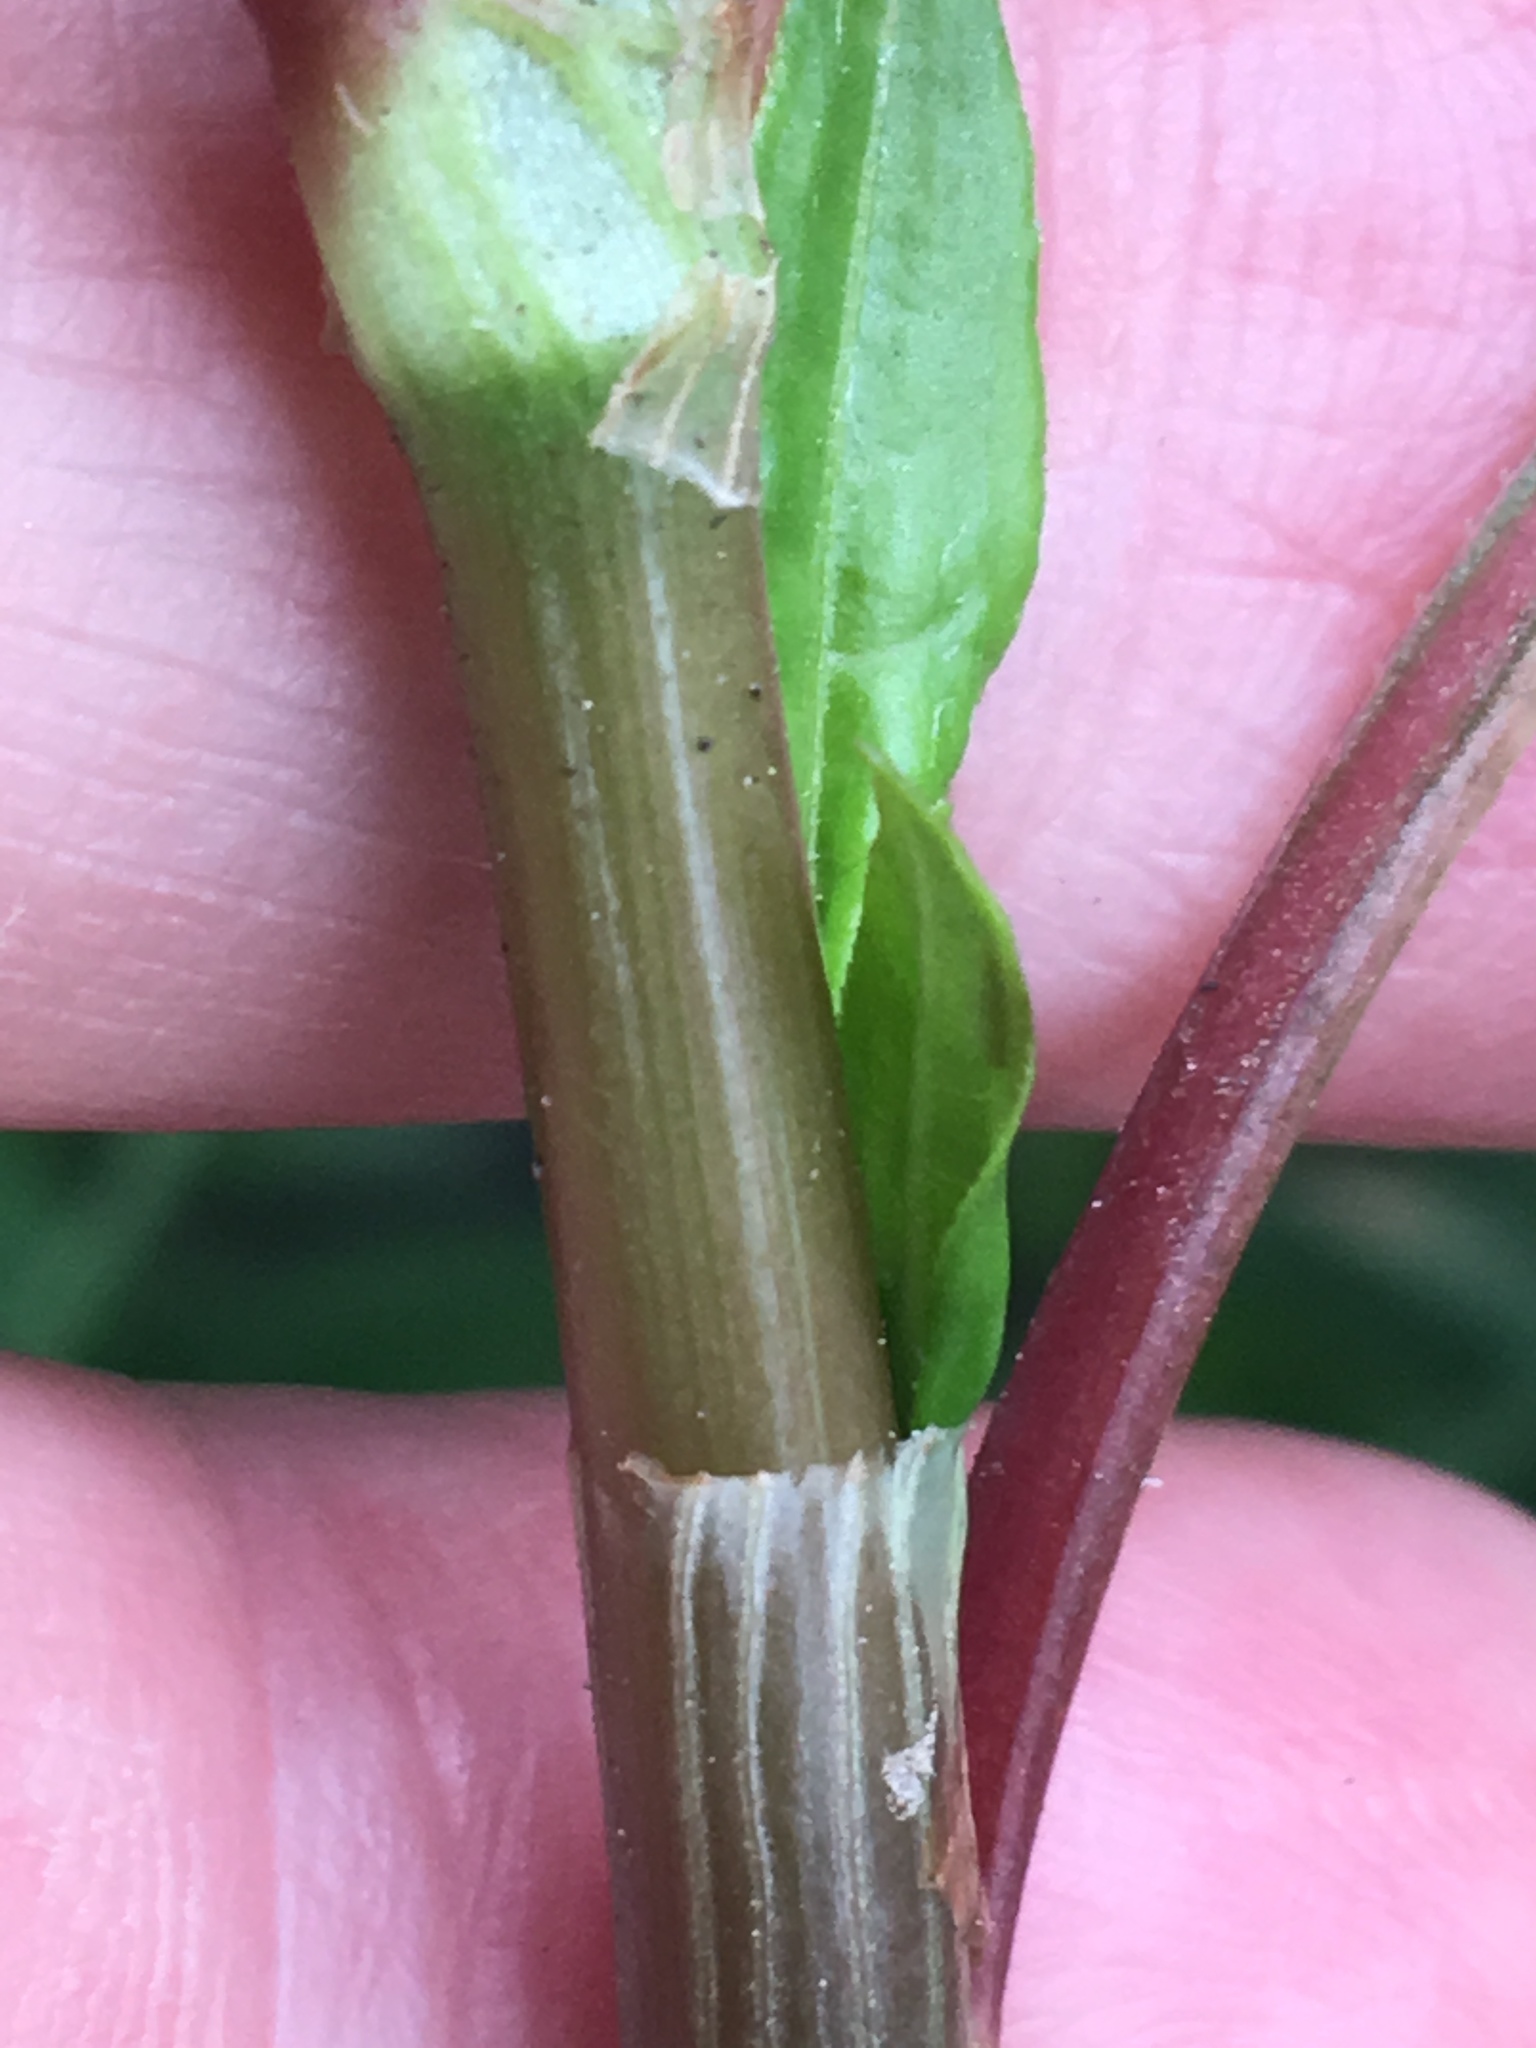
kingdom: Plantae
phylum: Tracheophyta
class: Magnoliopsida
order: Caryophyllales
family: Polygonaceae
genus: Persicaria
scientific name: Persicaria lapathifolia
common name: Curlytop knotweed
